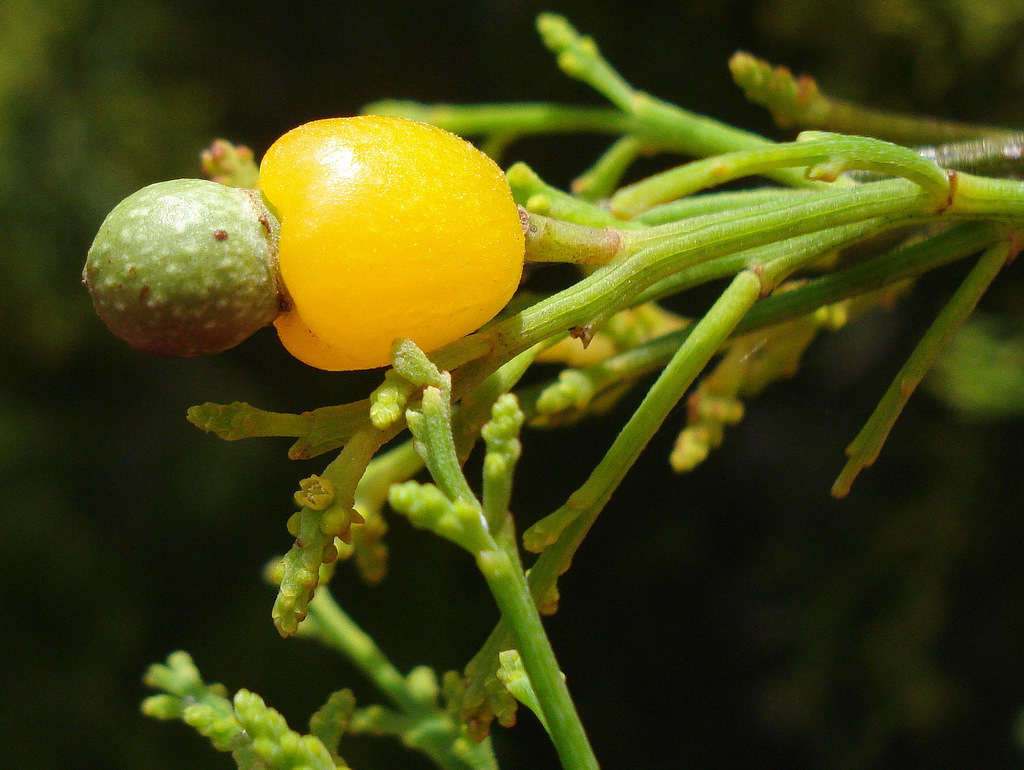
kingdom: Plantae
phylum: Tracheophyta
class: Magnoliopsida
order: Santalales
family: Santalaceae
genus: Exocarpos
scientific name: Exocarpos cupressiformis
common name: Cherry ballart
